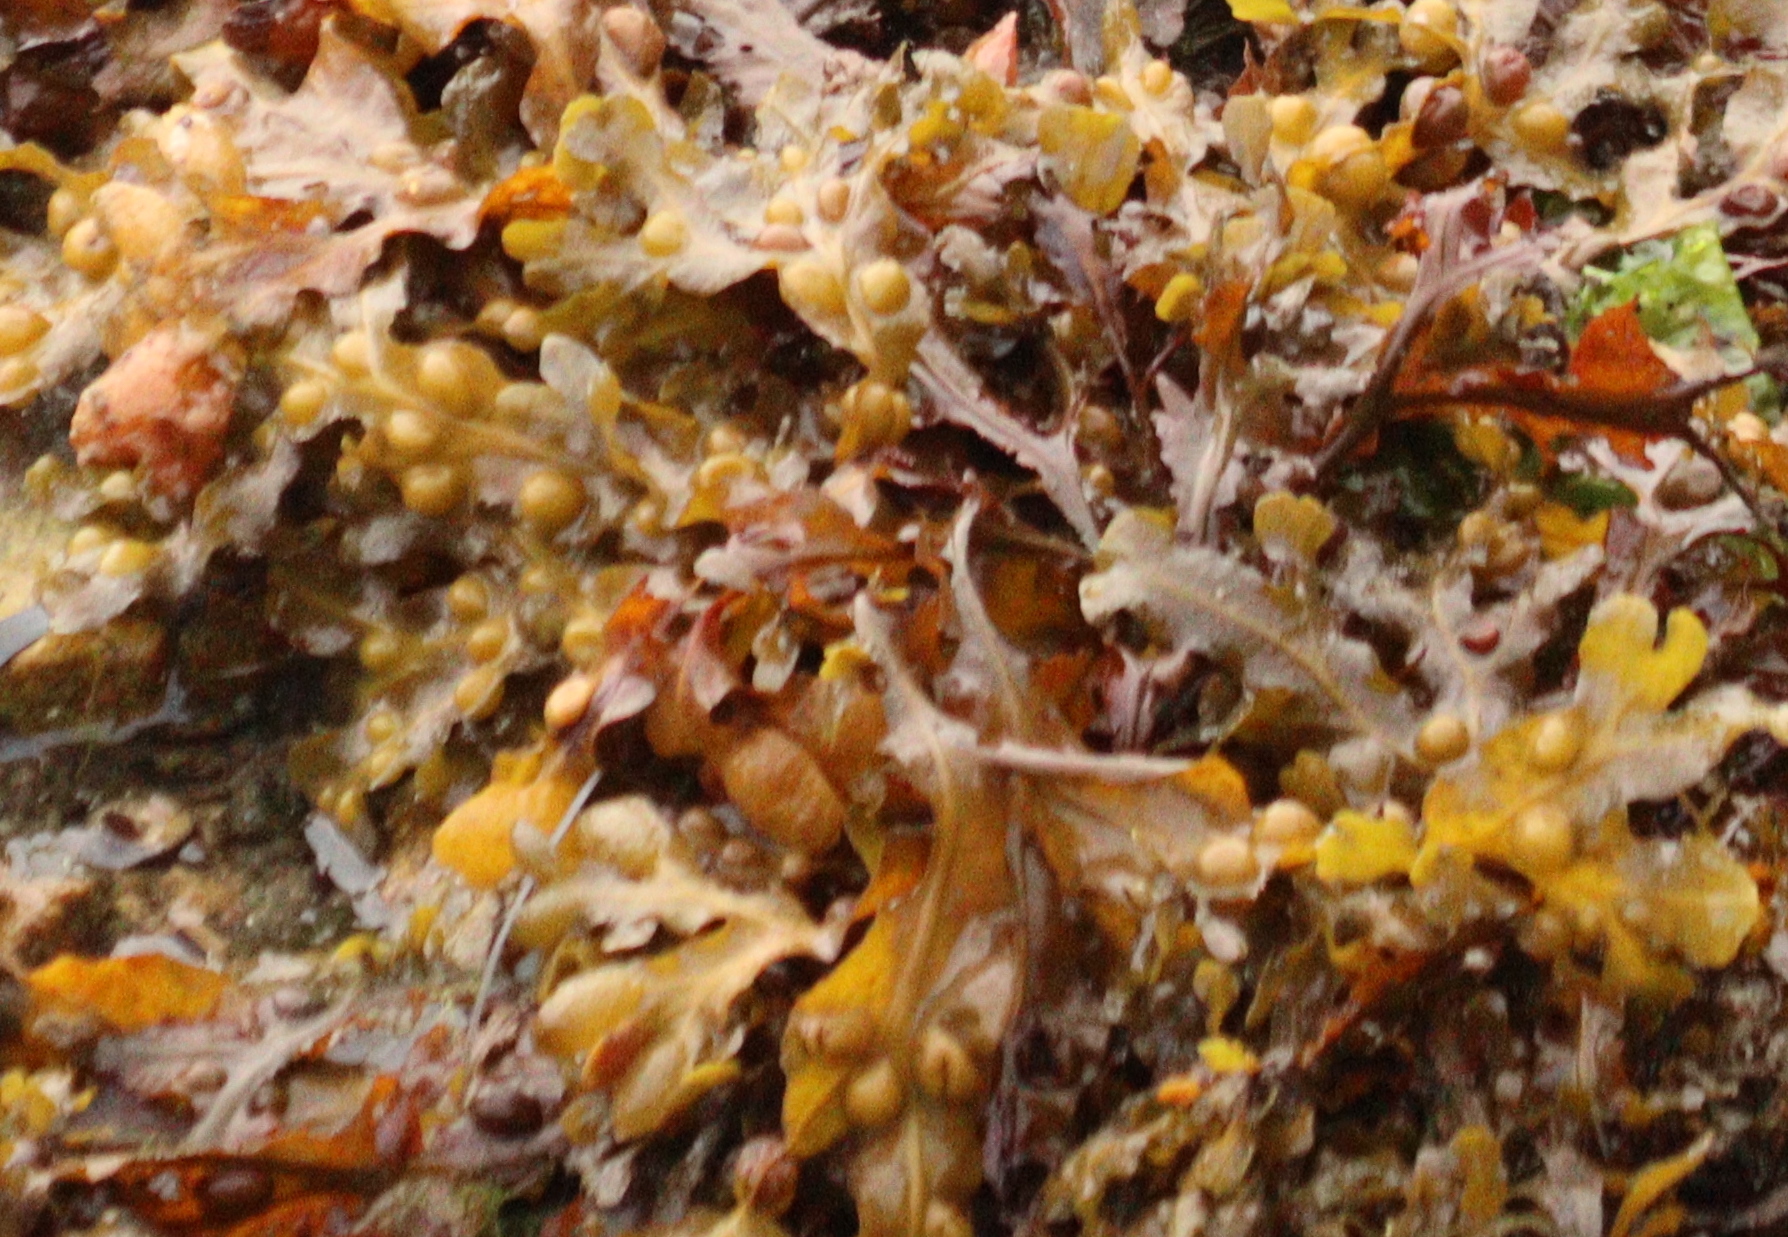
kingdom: Chromista
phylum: Ochrophyta
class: Phaeophyceae
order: Fucales
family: Fucaceae
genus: Fucus
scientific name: Fucus vesiculosus
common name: Bladder wrack
